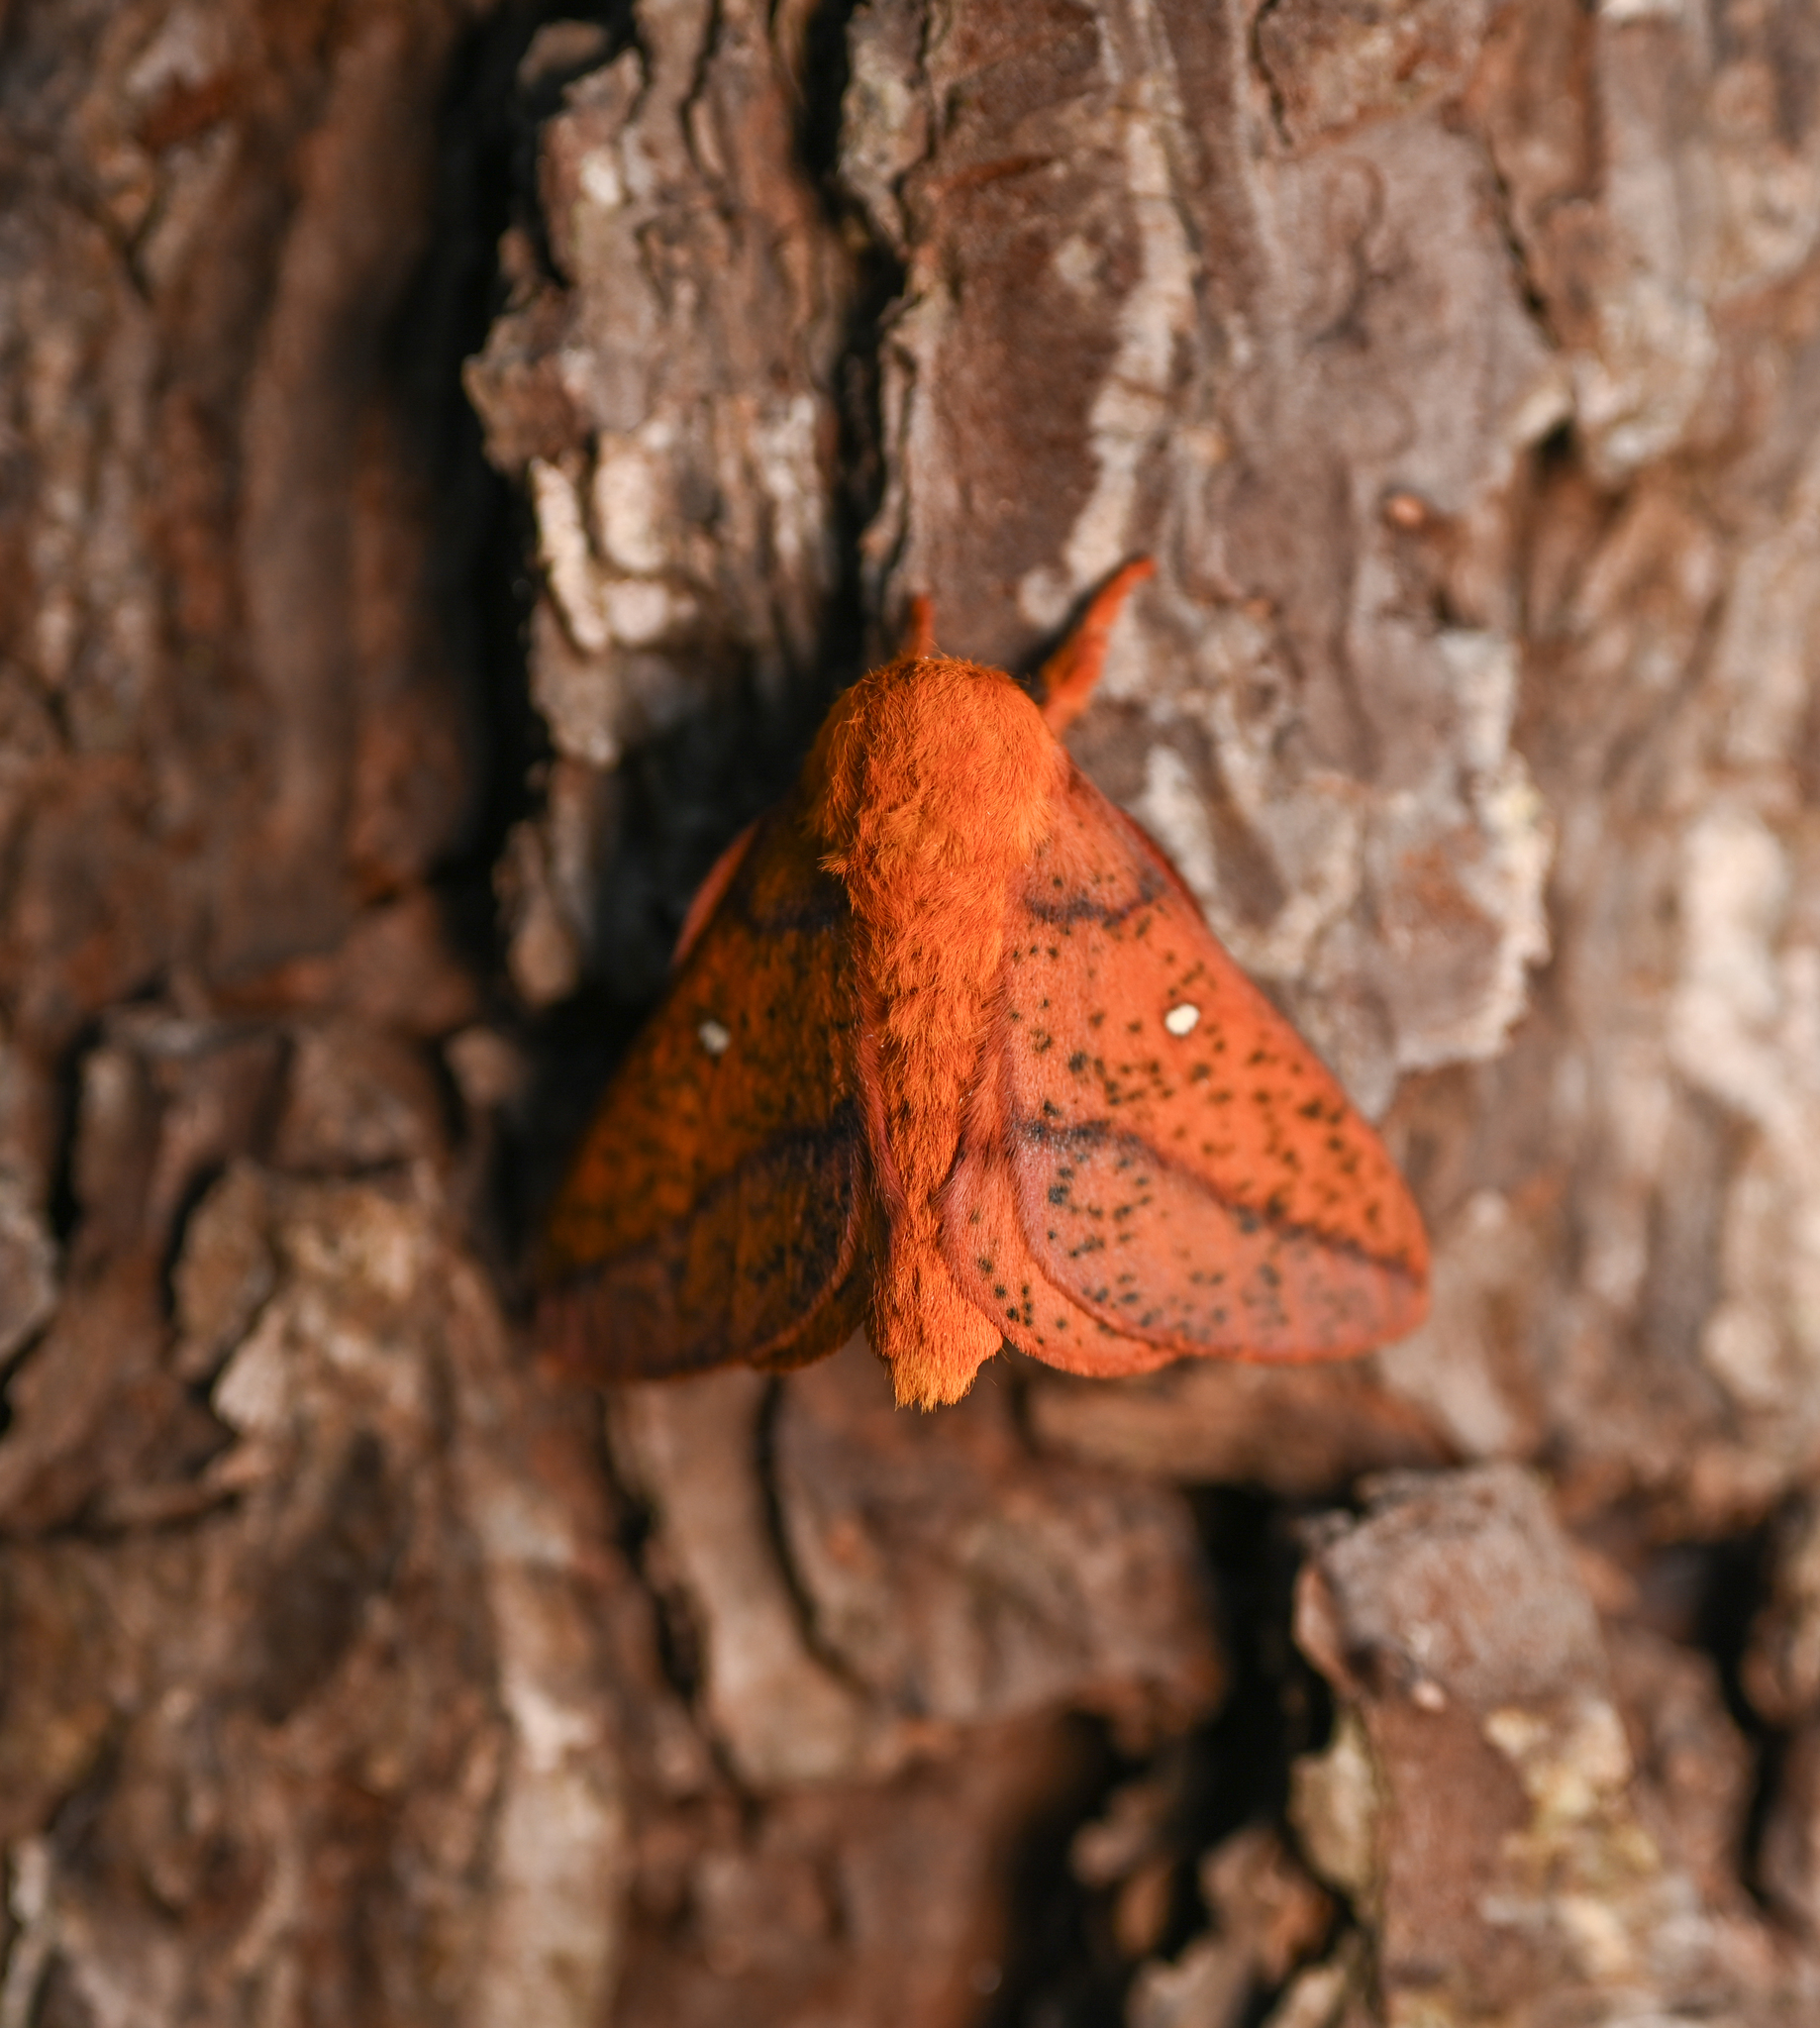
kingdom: Animalia
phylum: Arthropoda
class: Insecta
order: Lepidoptera
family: Saturniidae
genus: Anisota
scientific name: Anisota stigma
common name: Spiny oakworm moth
